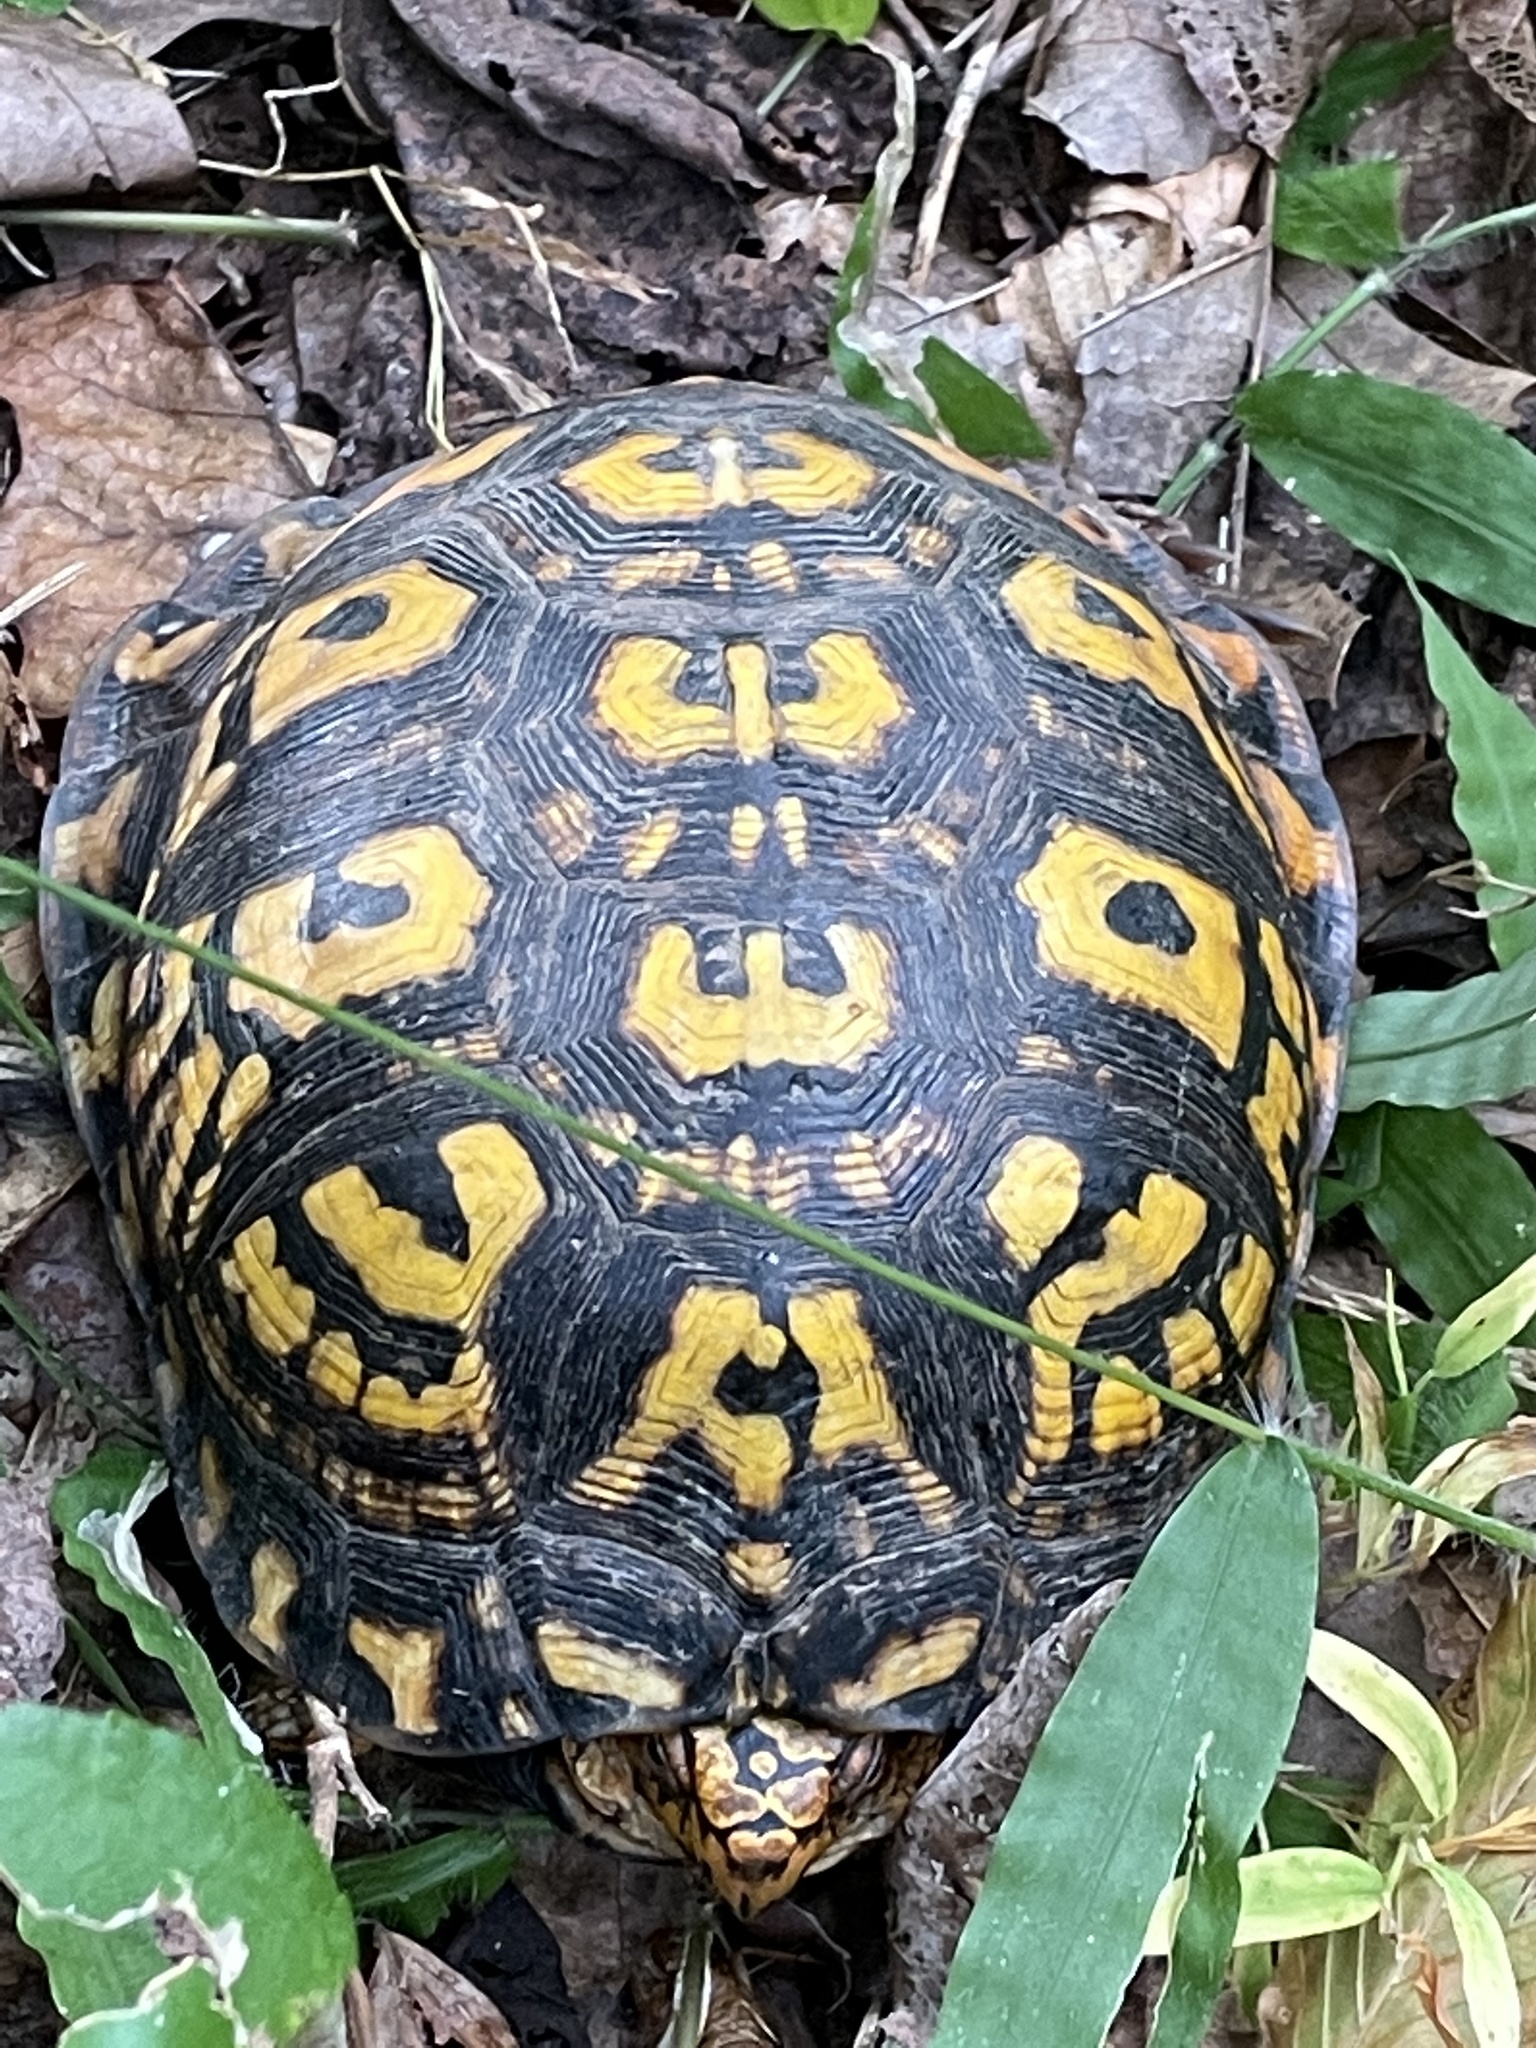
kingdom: Animalia
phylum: Chordata
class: Testudines
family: Emydidae
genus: Terrapene
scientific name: Terrapene carolina
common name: Common box turtle
